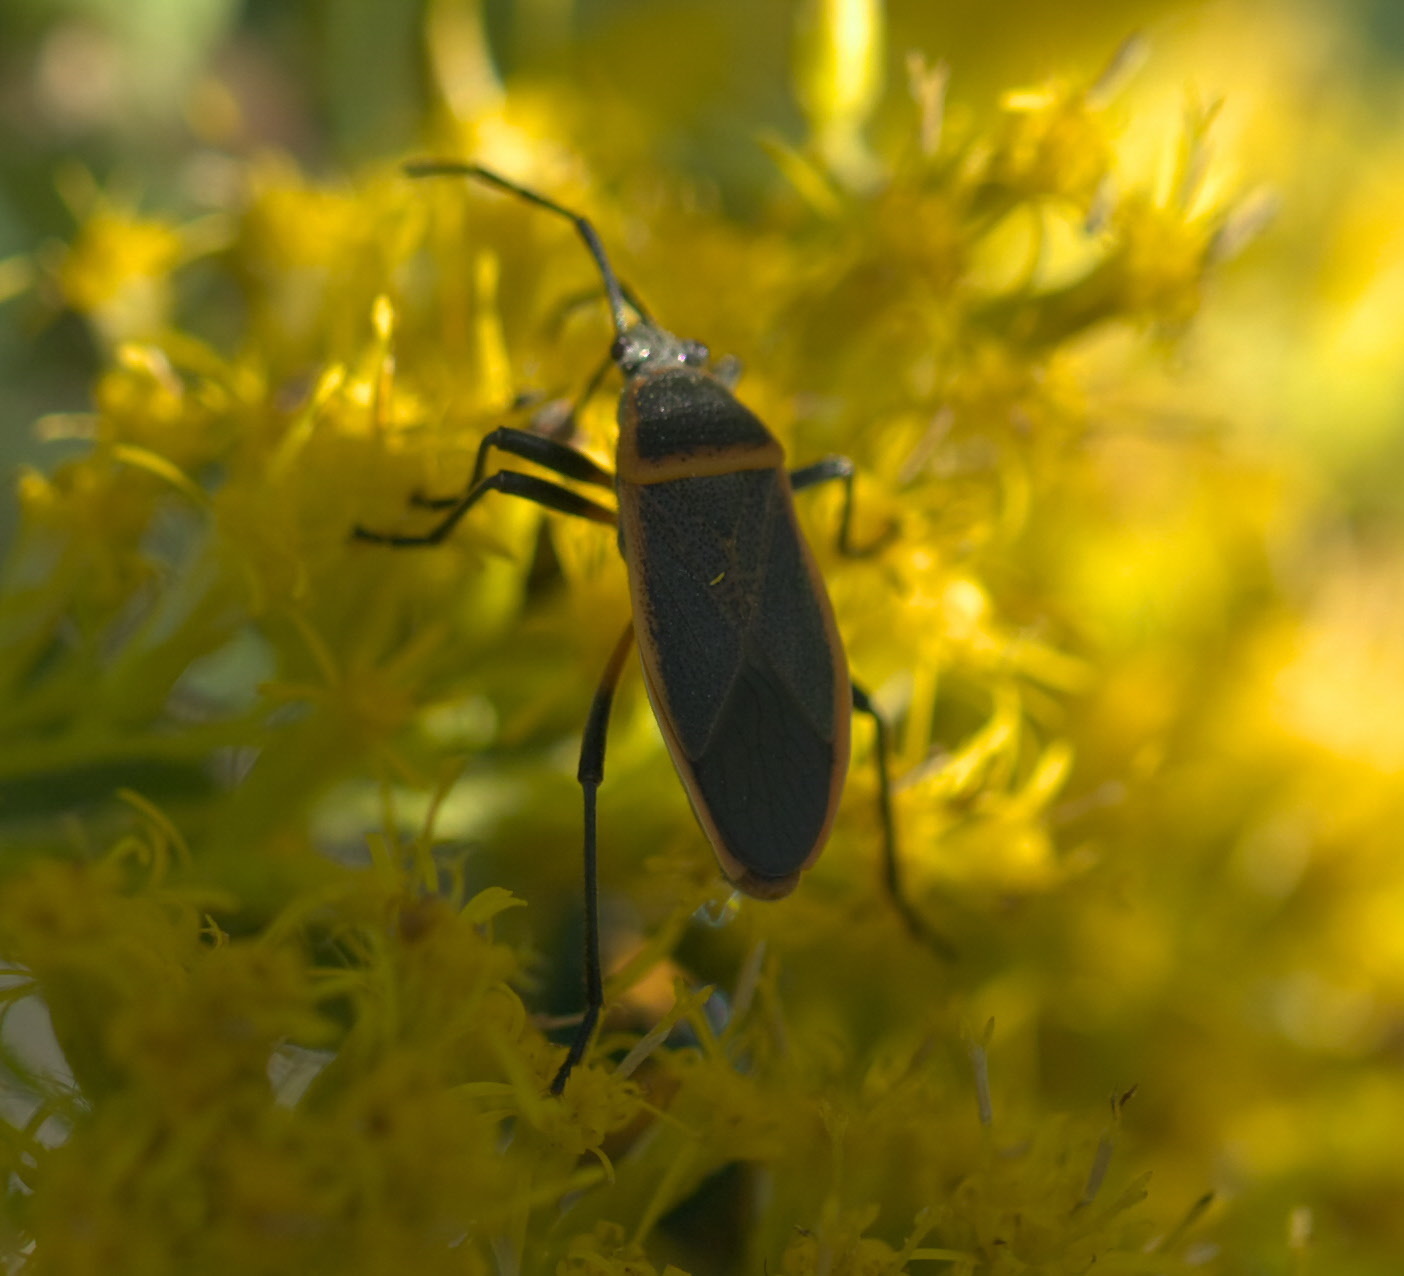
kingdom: Animalia
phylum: Arthropoda
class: Insecta
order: Hemiptera
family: Largidae
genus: Largus
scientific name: Largus succinctus
